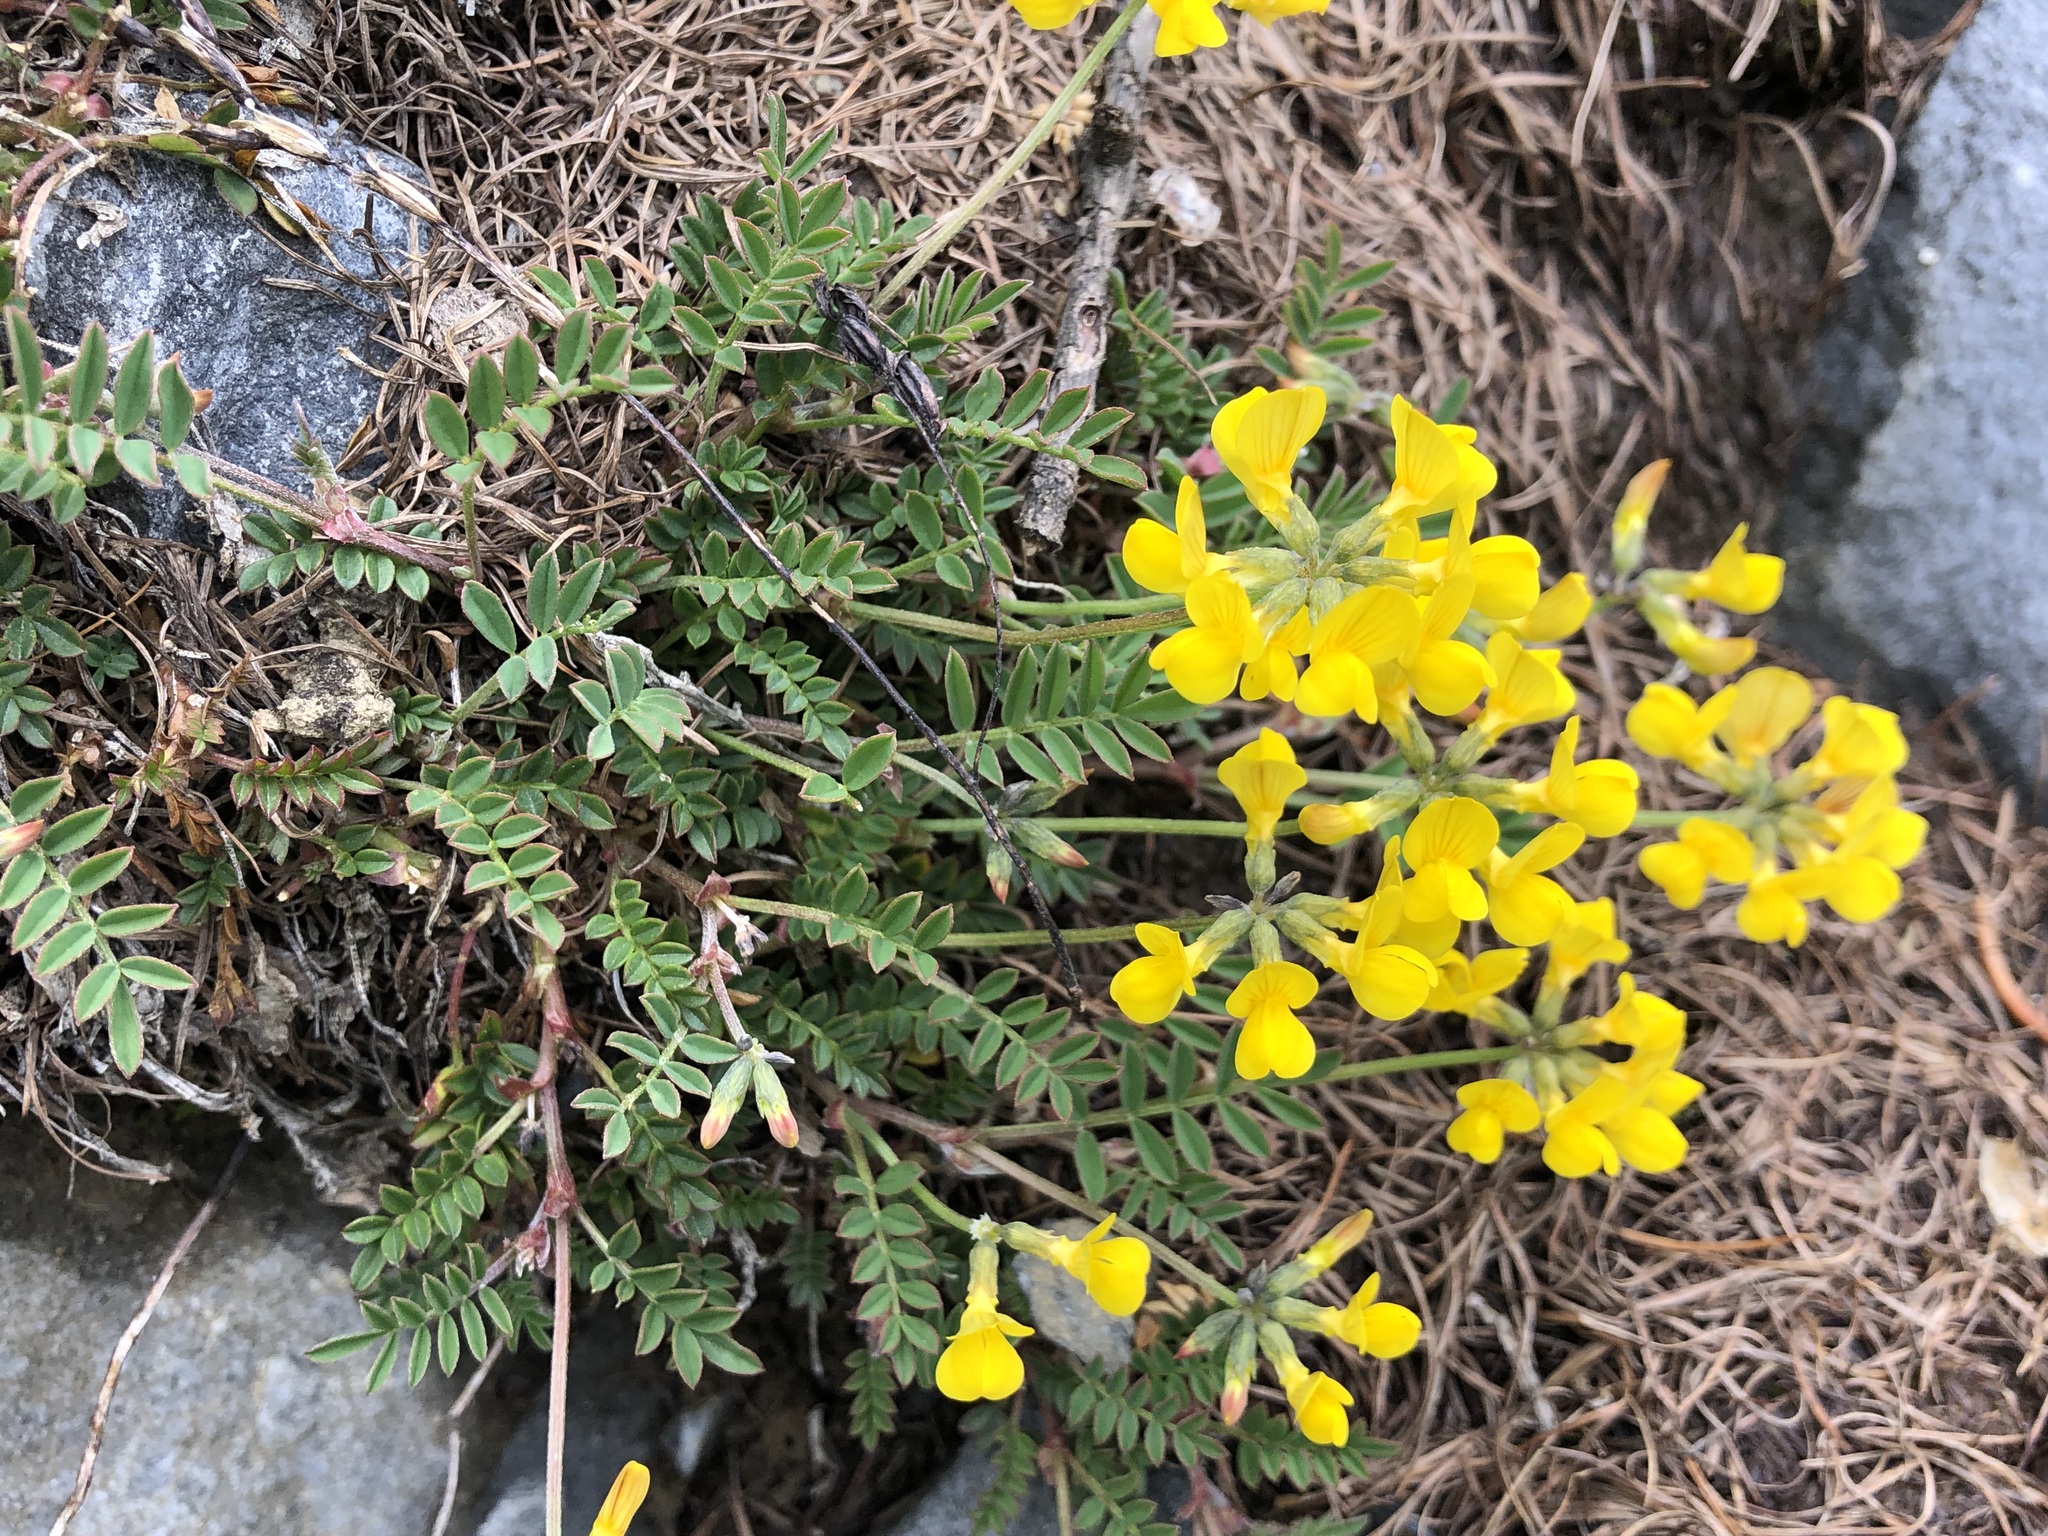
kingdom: Plantae
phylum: Tracheophyta
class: Magnoliopsida
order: Fabales
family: Fabaceae
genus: Hippocrepis
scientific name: Hippocrepis comosa
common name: Horseshoe vetch
